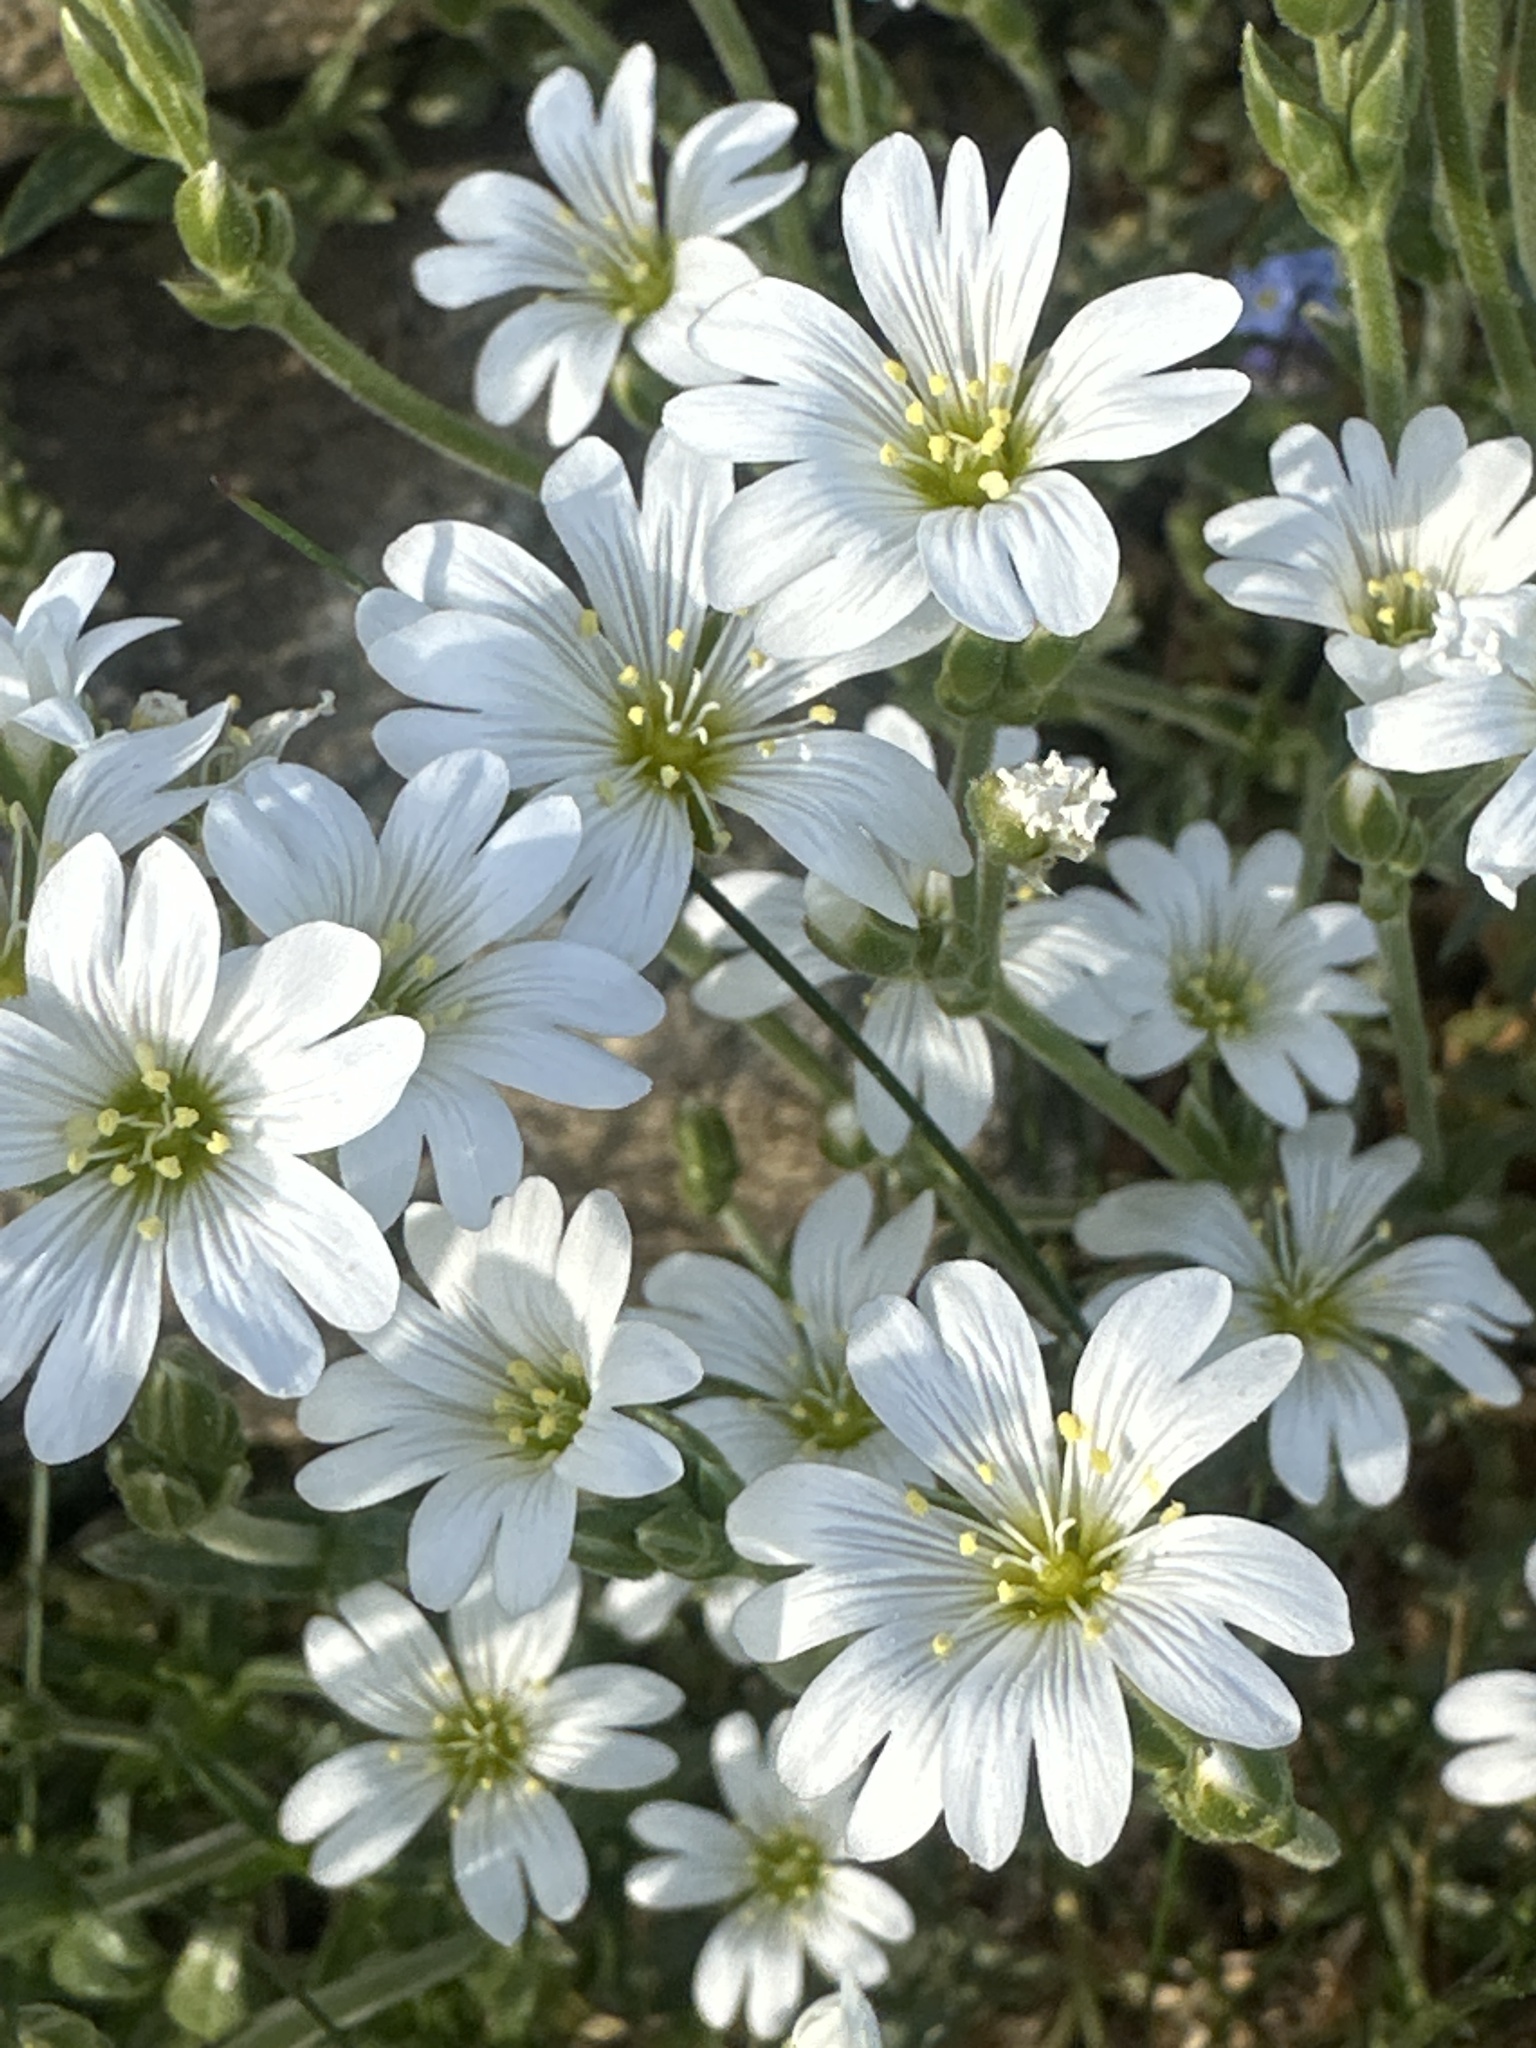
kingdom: Plantae
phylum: Tracheophyta
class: Magnoliopsida
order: Caryophyllales
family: Caryophyllaceae
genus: Cerastium
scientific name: Cerastium arvense
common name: Field mouse-ear
